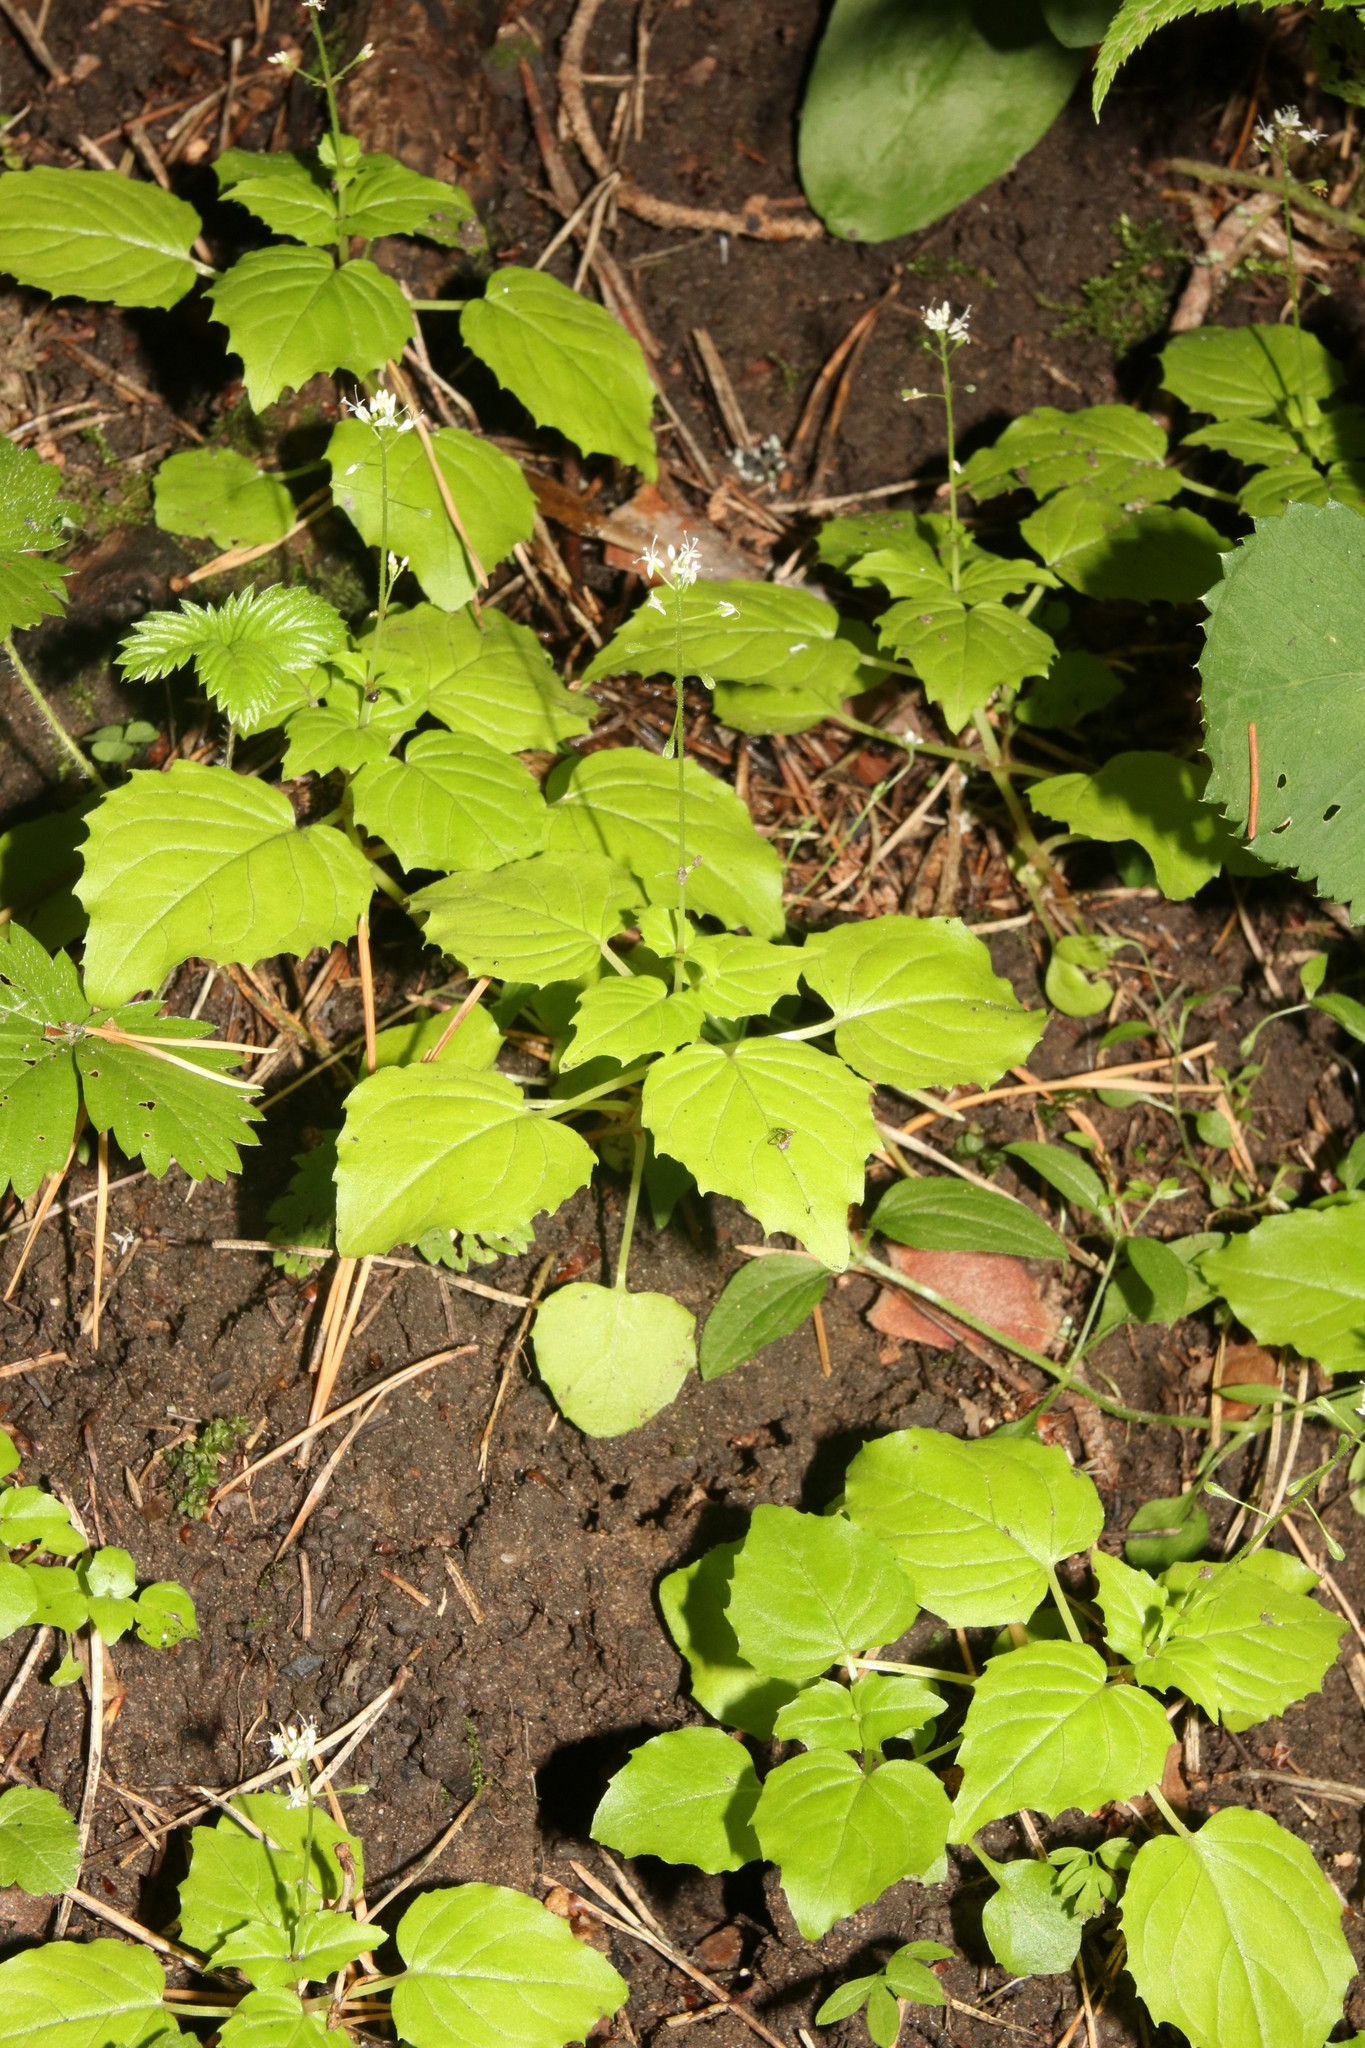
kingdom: Plantae
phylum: Tracheophyta
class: Magnoliopsida
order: Myrtales
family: Onagraceae
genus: Circaea
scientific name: Circaea alpina
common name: Alpine enchanter's-nightshade
